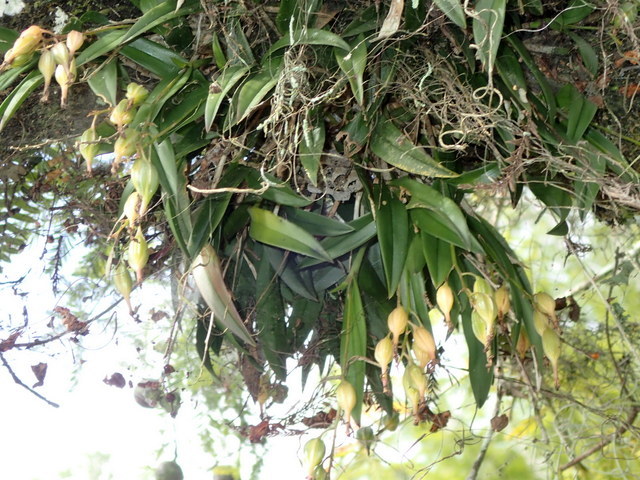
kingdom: Plantae
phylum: Tracheophyta
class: Liliopsida
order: Asparagales
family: Orchidaceae
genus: Epidendrum
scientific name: Epidendrum conopseum
